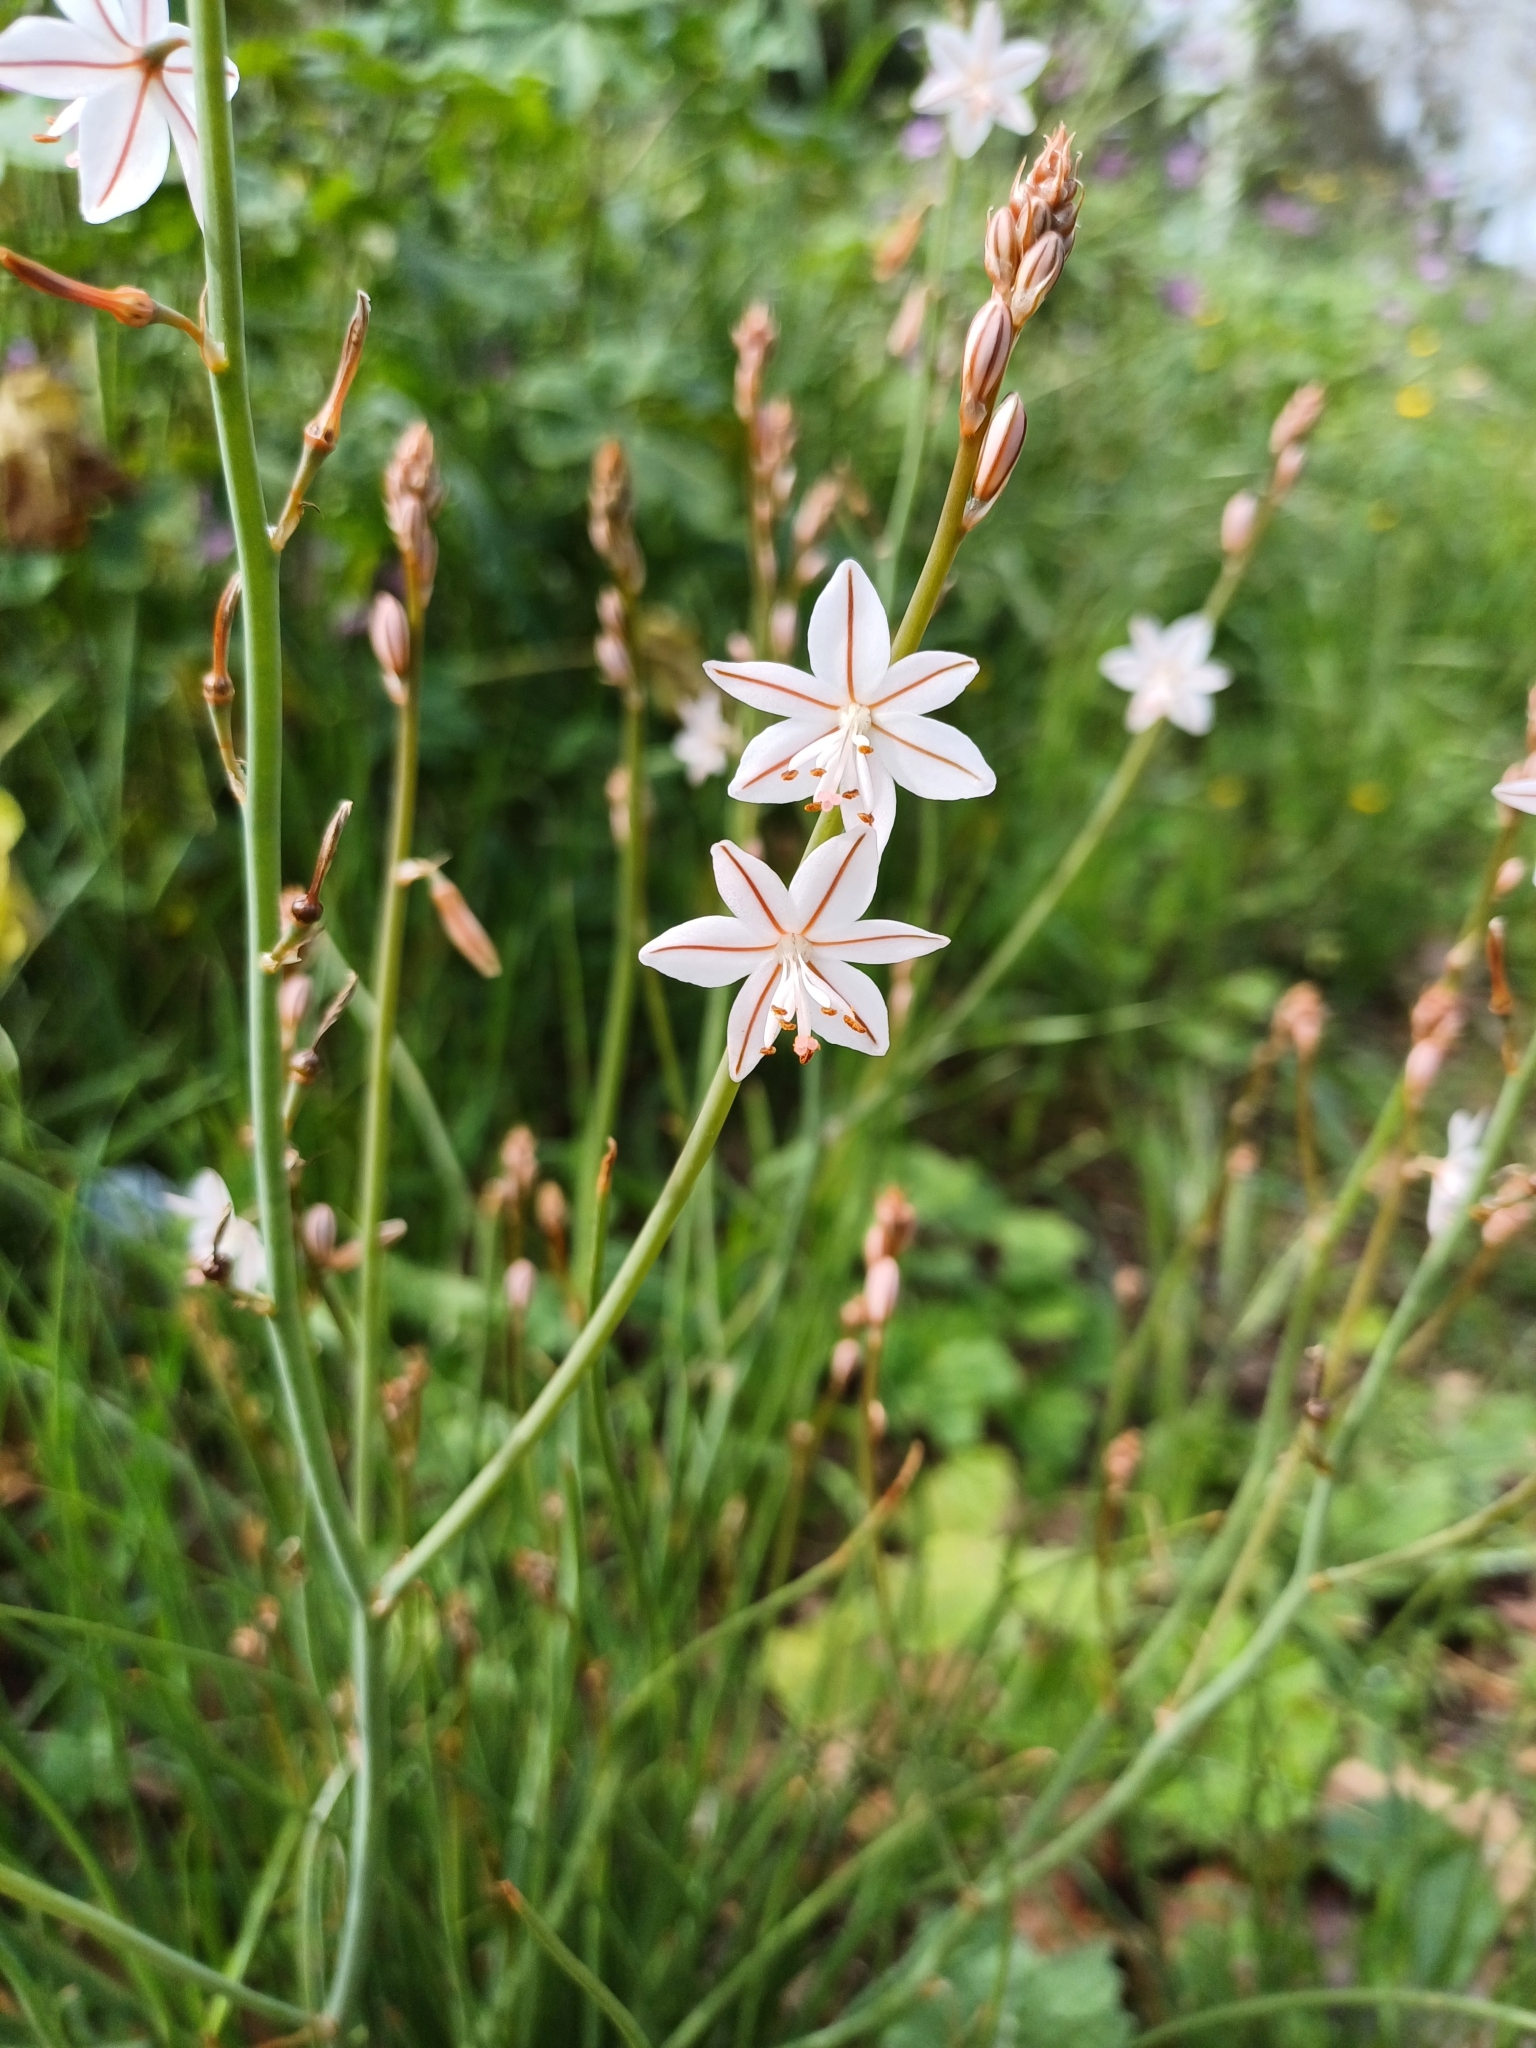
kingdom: Plantae
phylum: Tracheophyta
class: Liliopsida
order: Asparagales
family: Asphodelaceae
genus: Asphodelus
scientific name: Asphodelus fistulosus
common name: Onionweed
